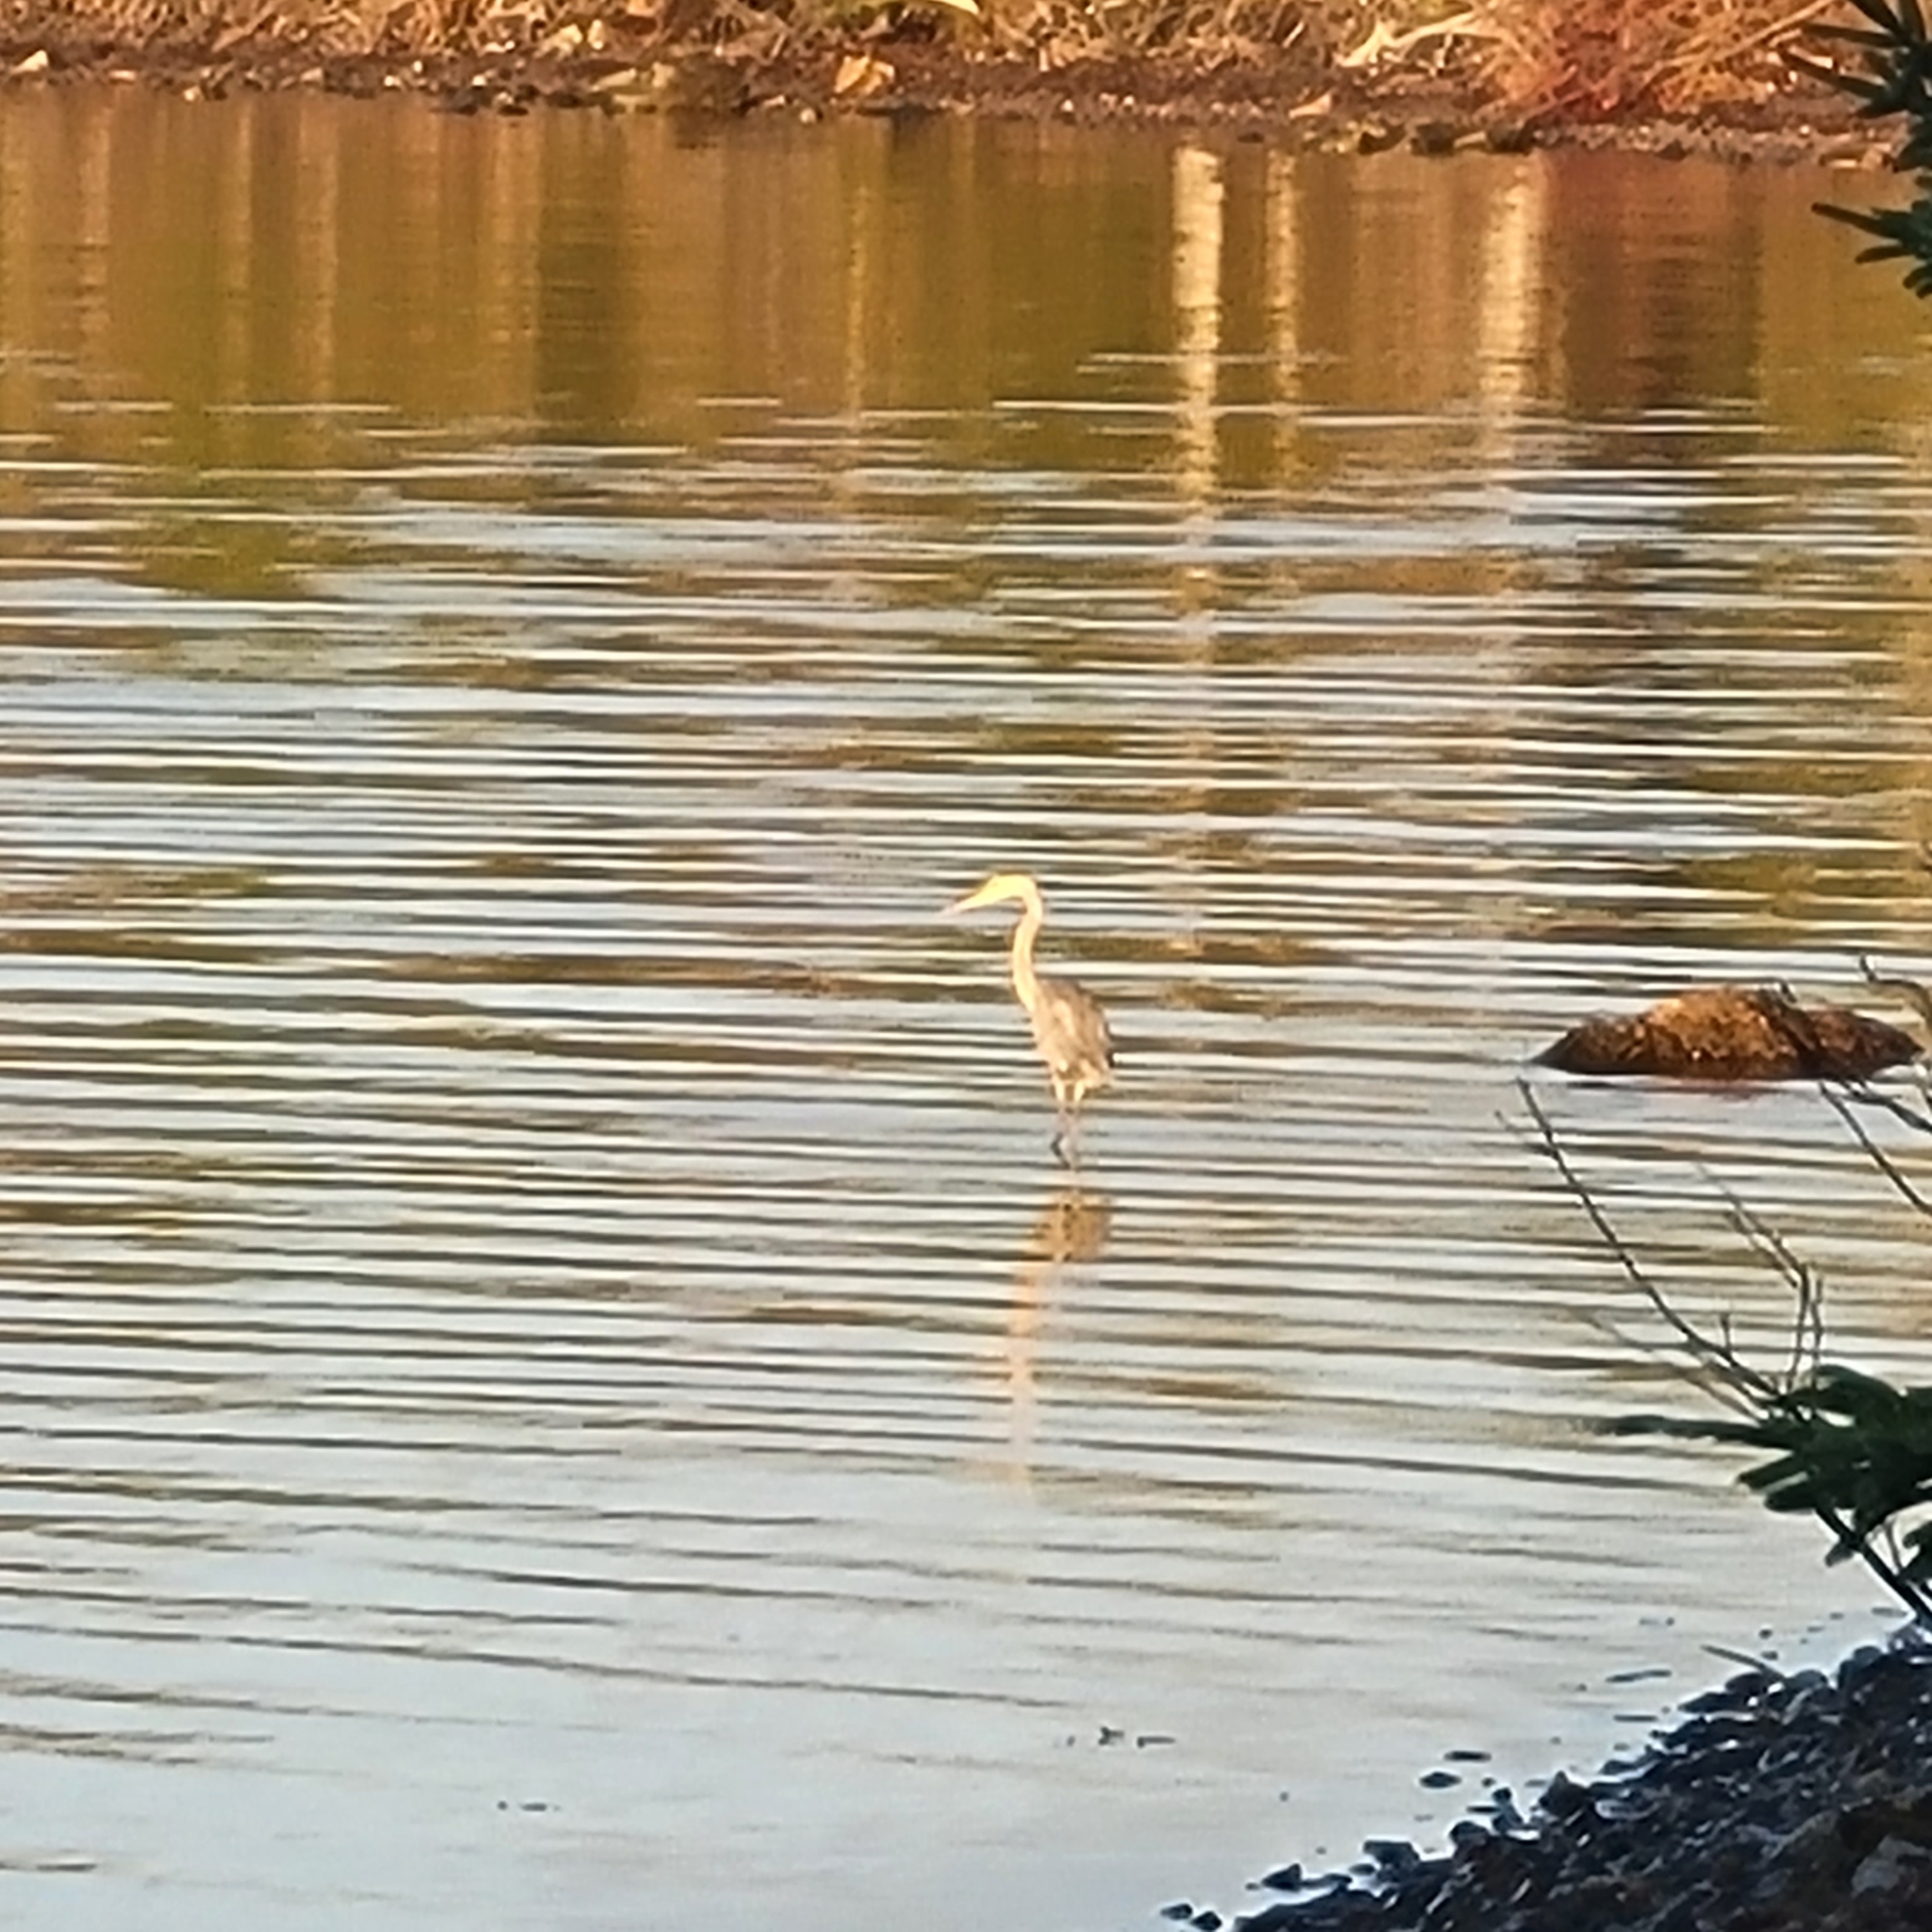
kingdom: Animalia
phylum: Chordata
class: Aves
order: Pelecaniformes
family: Ardeidae
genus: Ardea
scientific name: Ardea herodias
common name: Great blue heron
